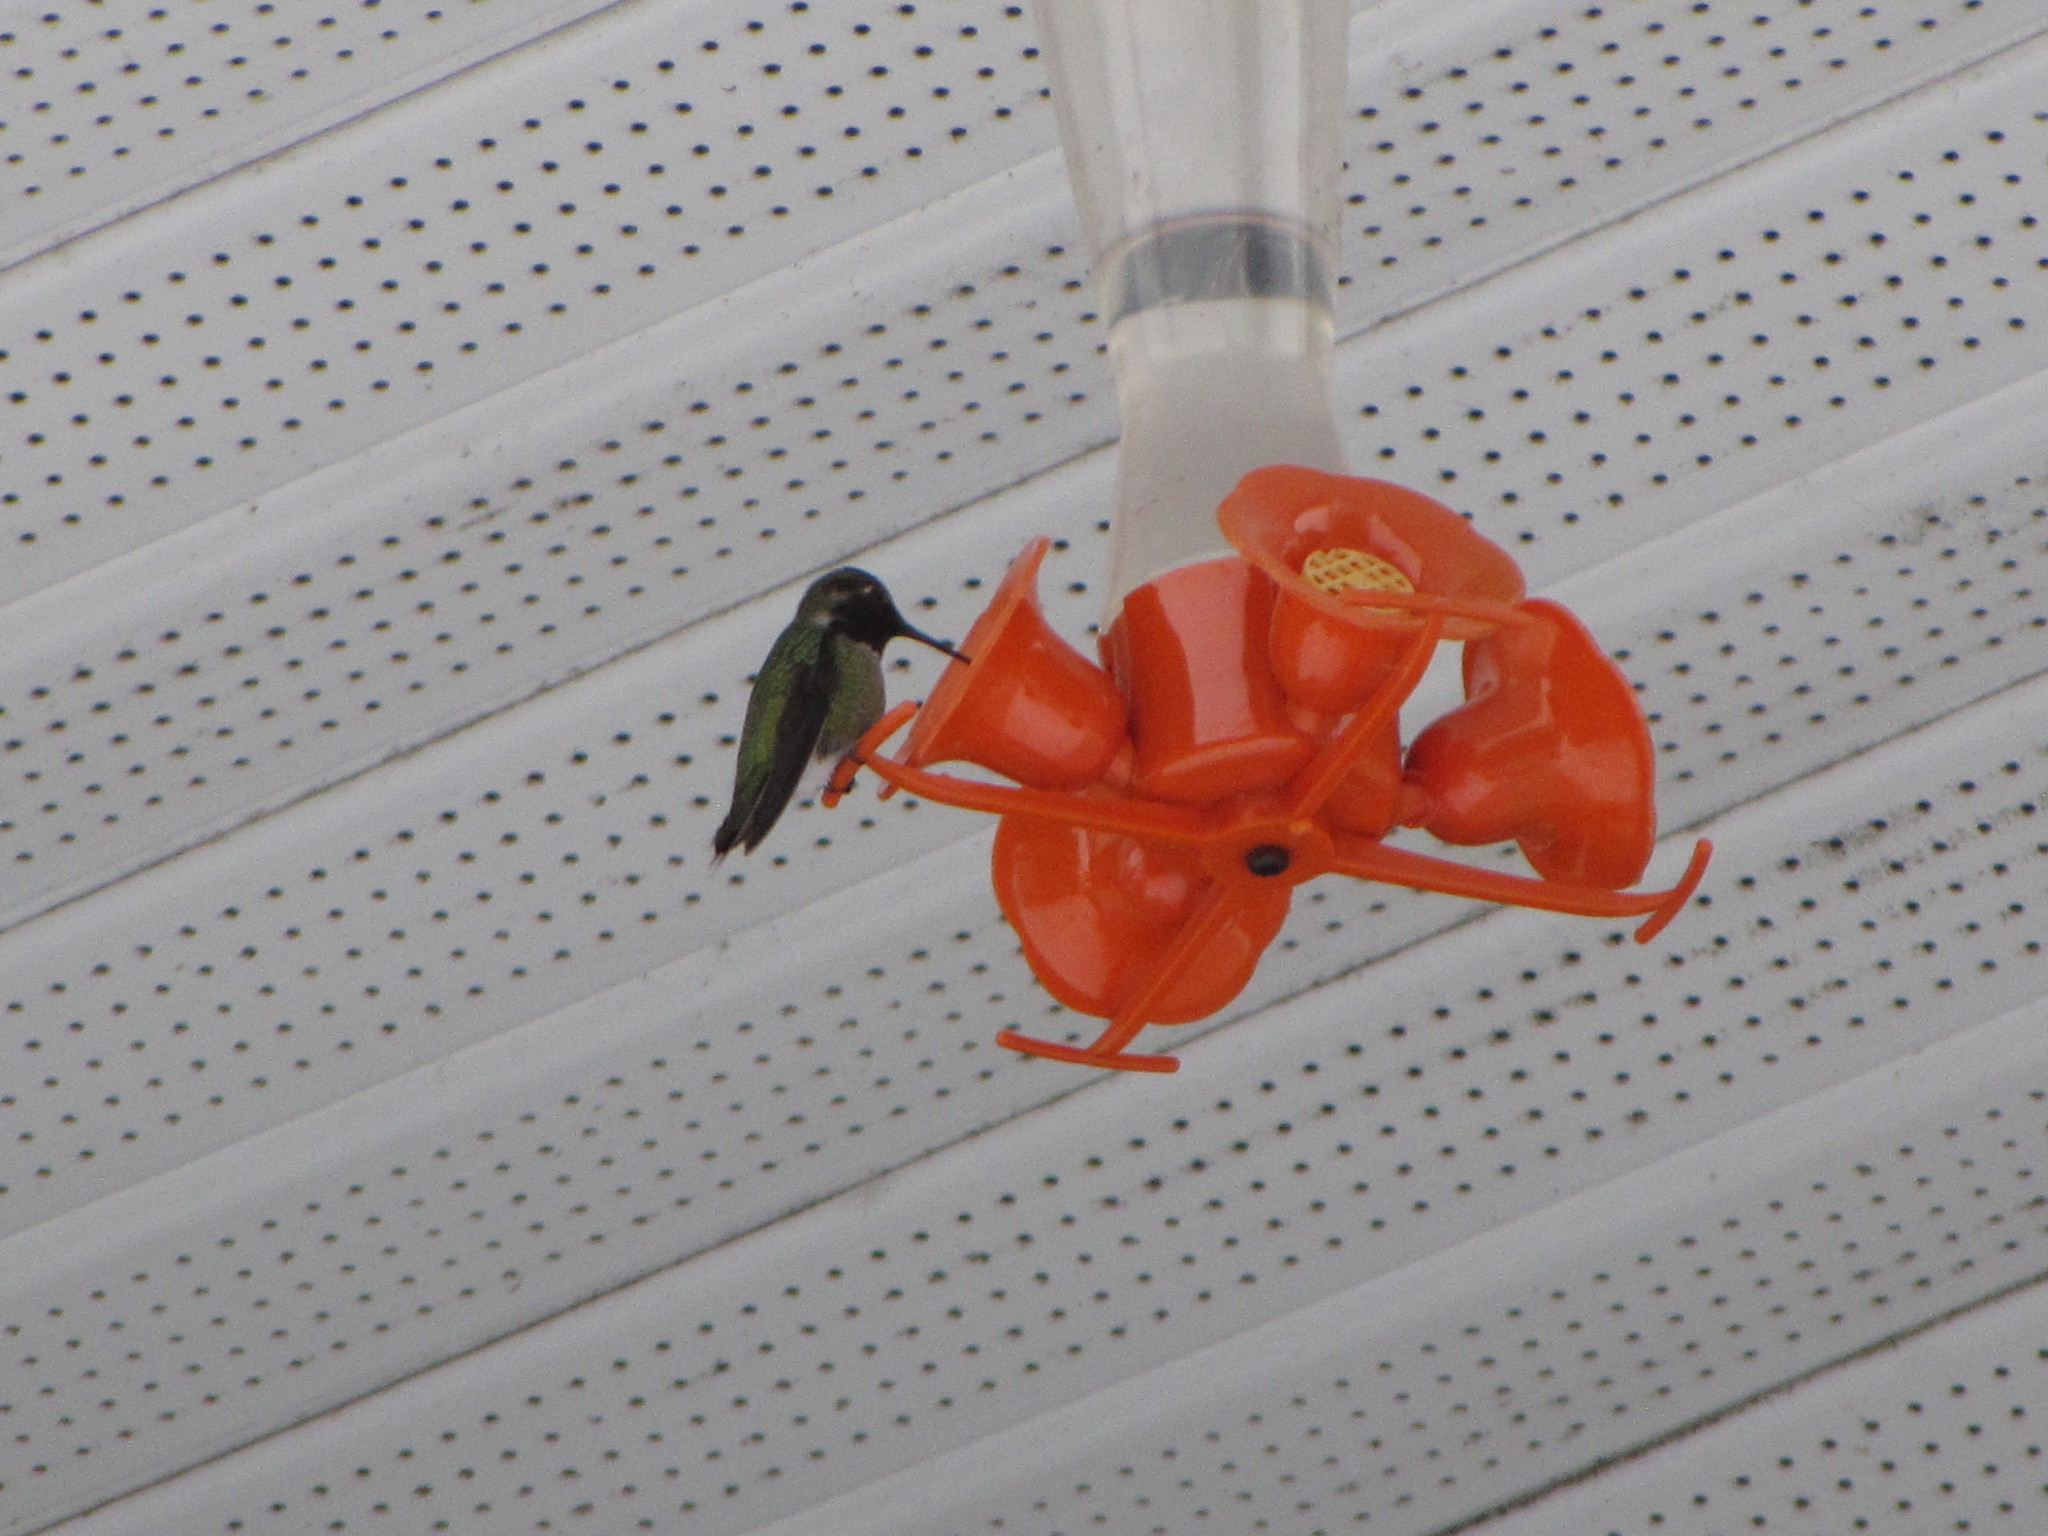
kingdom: Animalia
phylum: Chordata
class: Aves
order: Apodiformes
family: Trochilidae
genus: Calypte
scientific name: Calypte anna
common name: Anna's hummingbird
